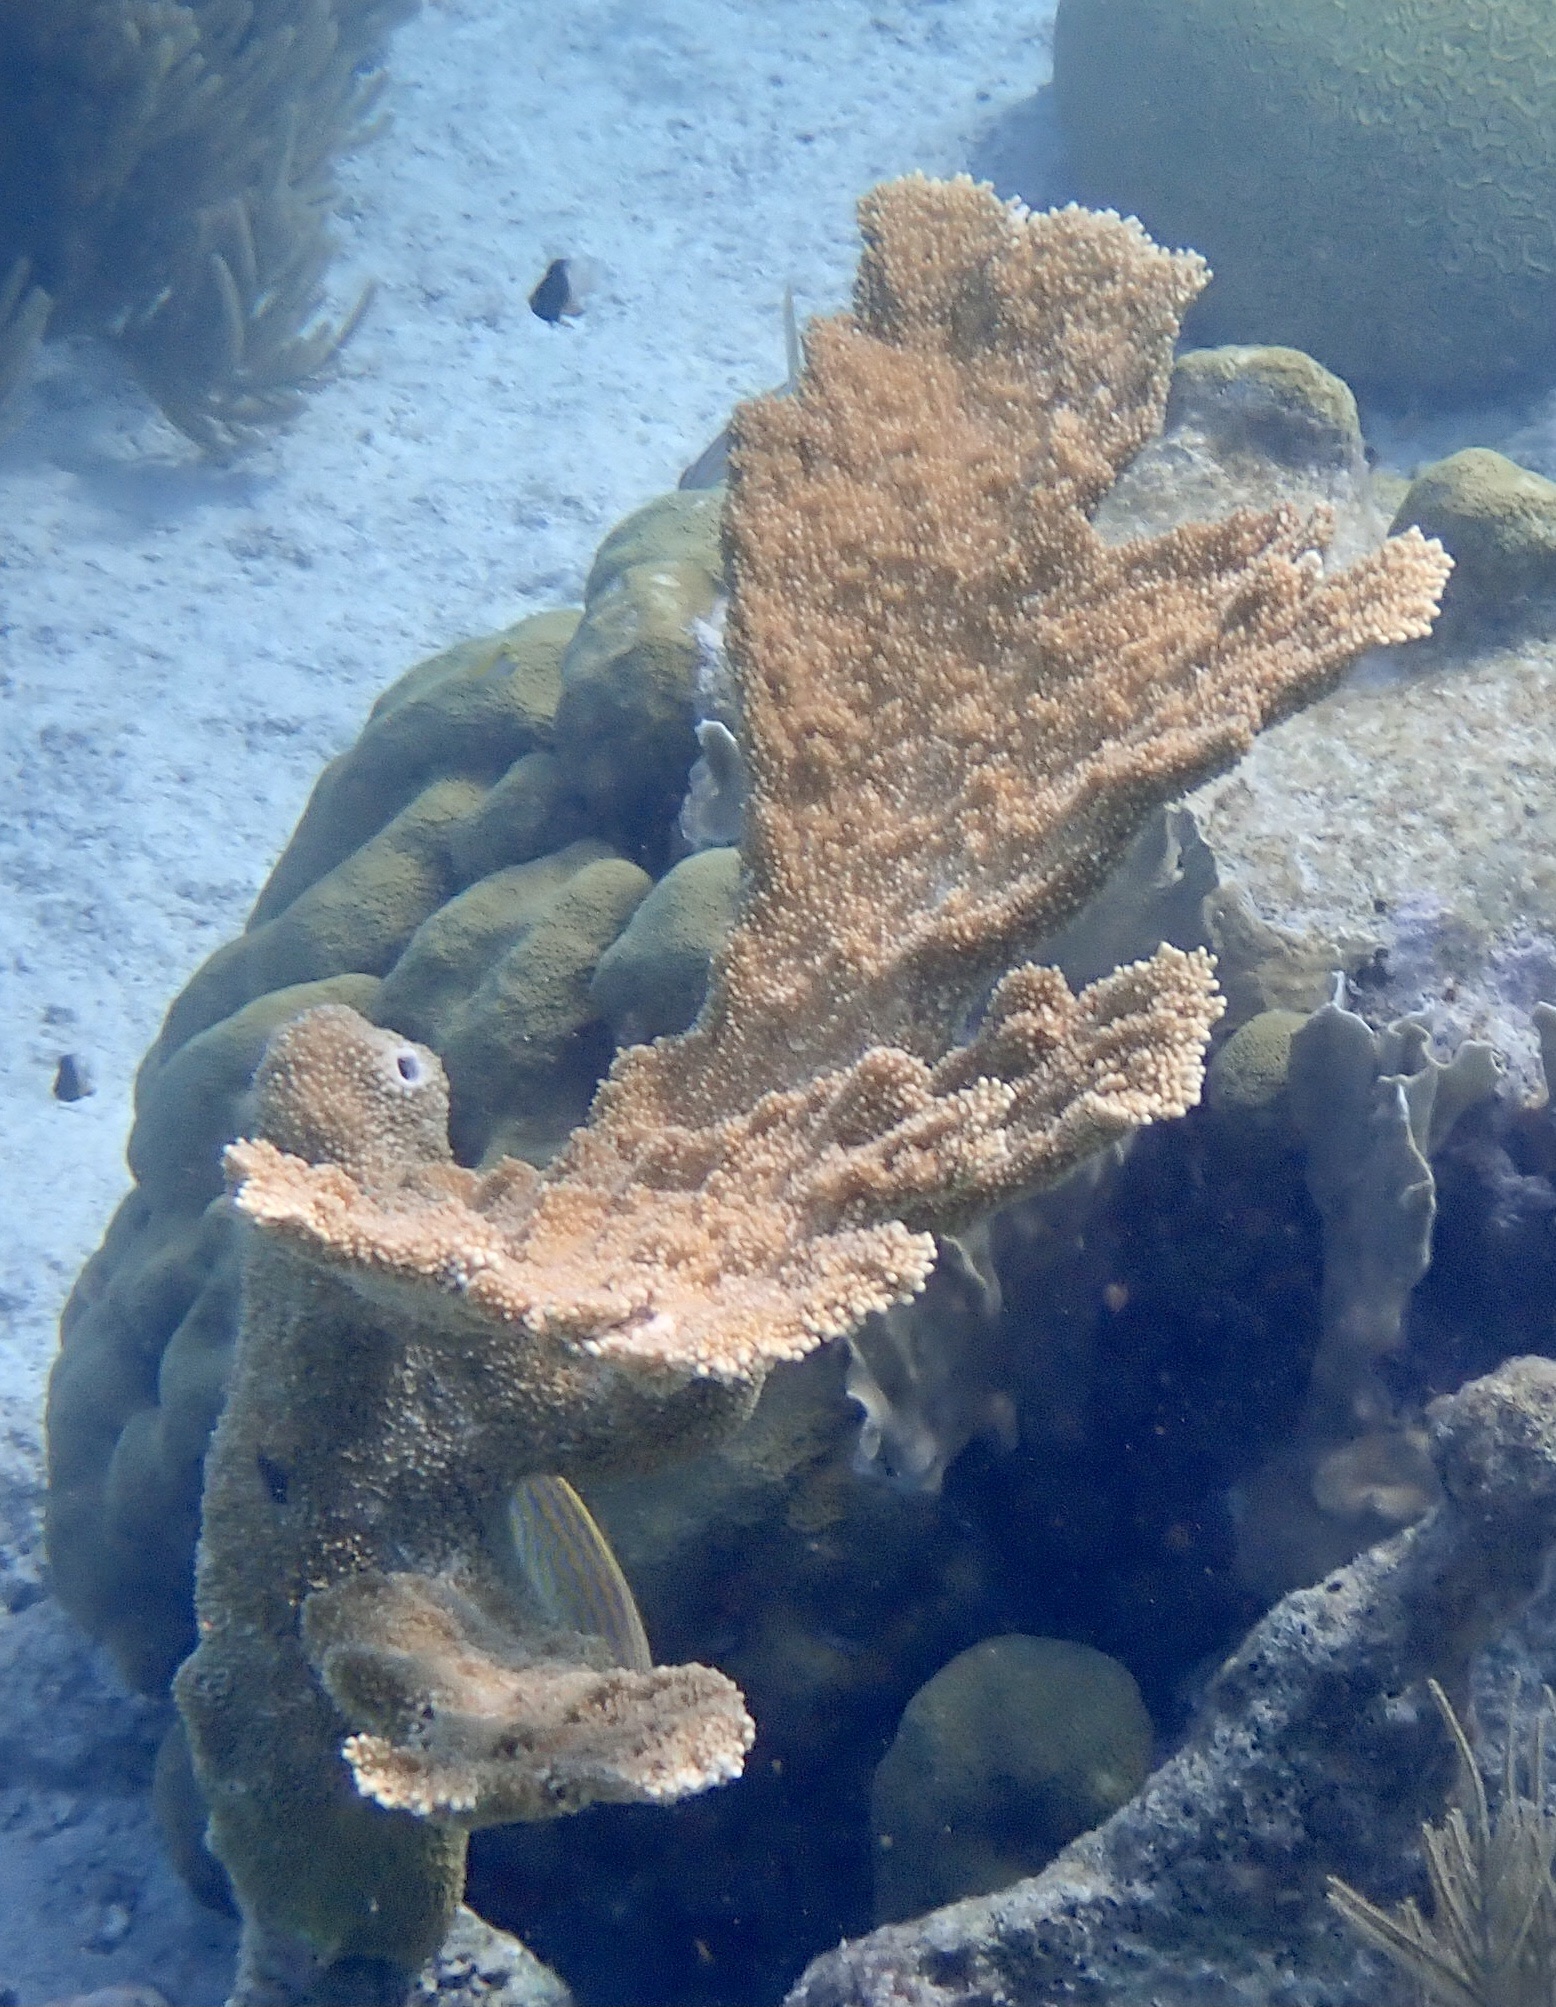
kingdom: Animalia
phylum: Cnidaria
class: Anthozoa
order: Scleractinia
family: Acroporidae
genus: Acropora
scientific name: Acropora palmata
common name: Elkhorn coral
